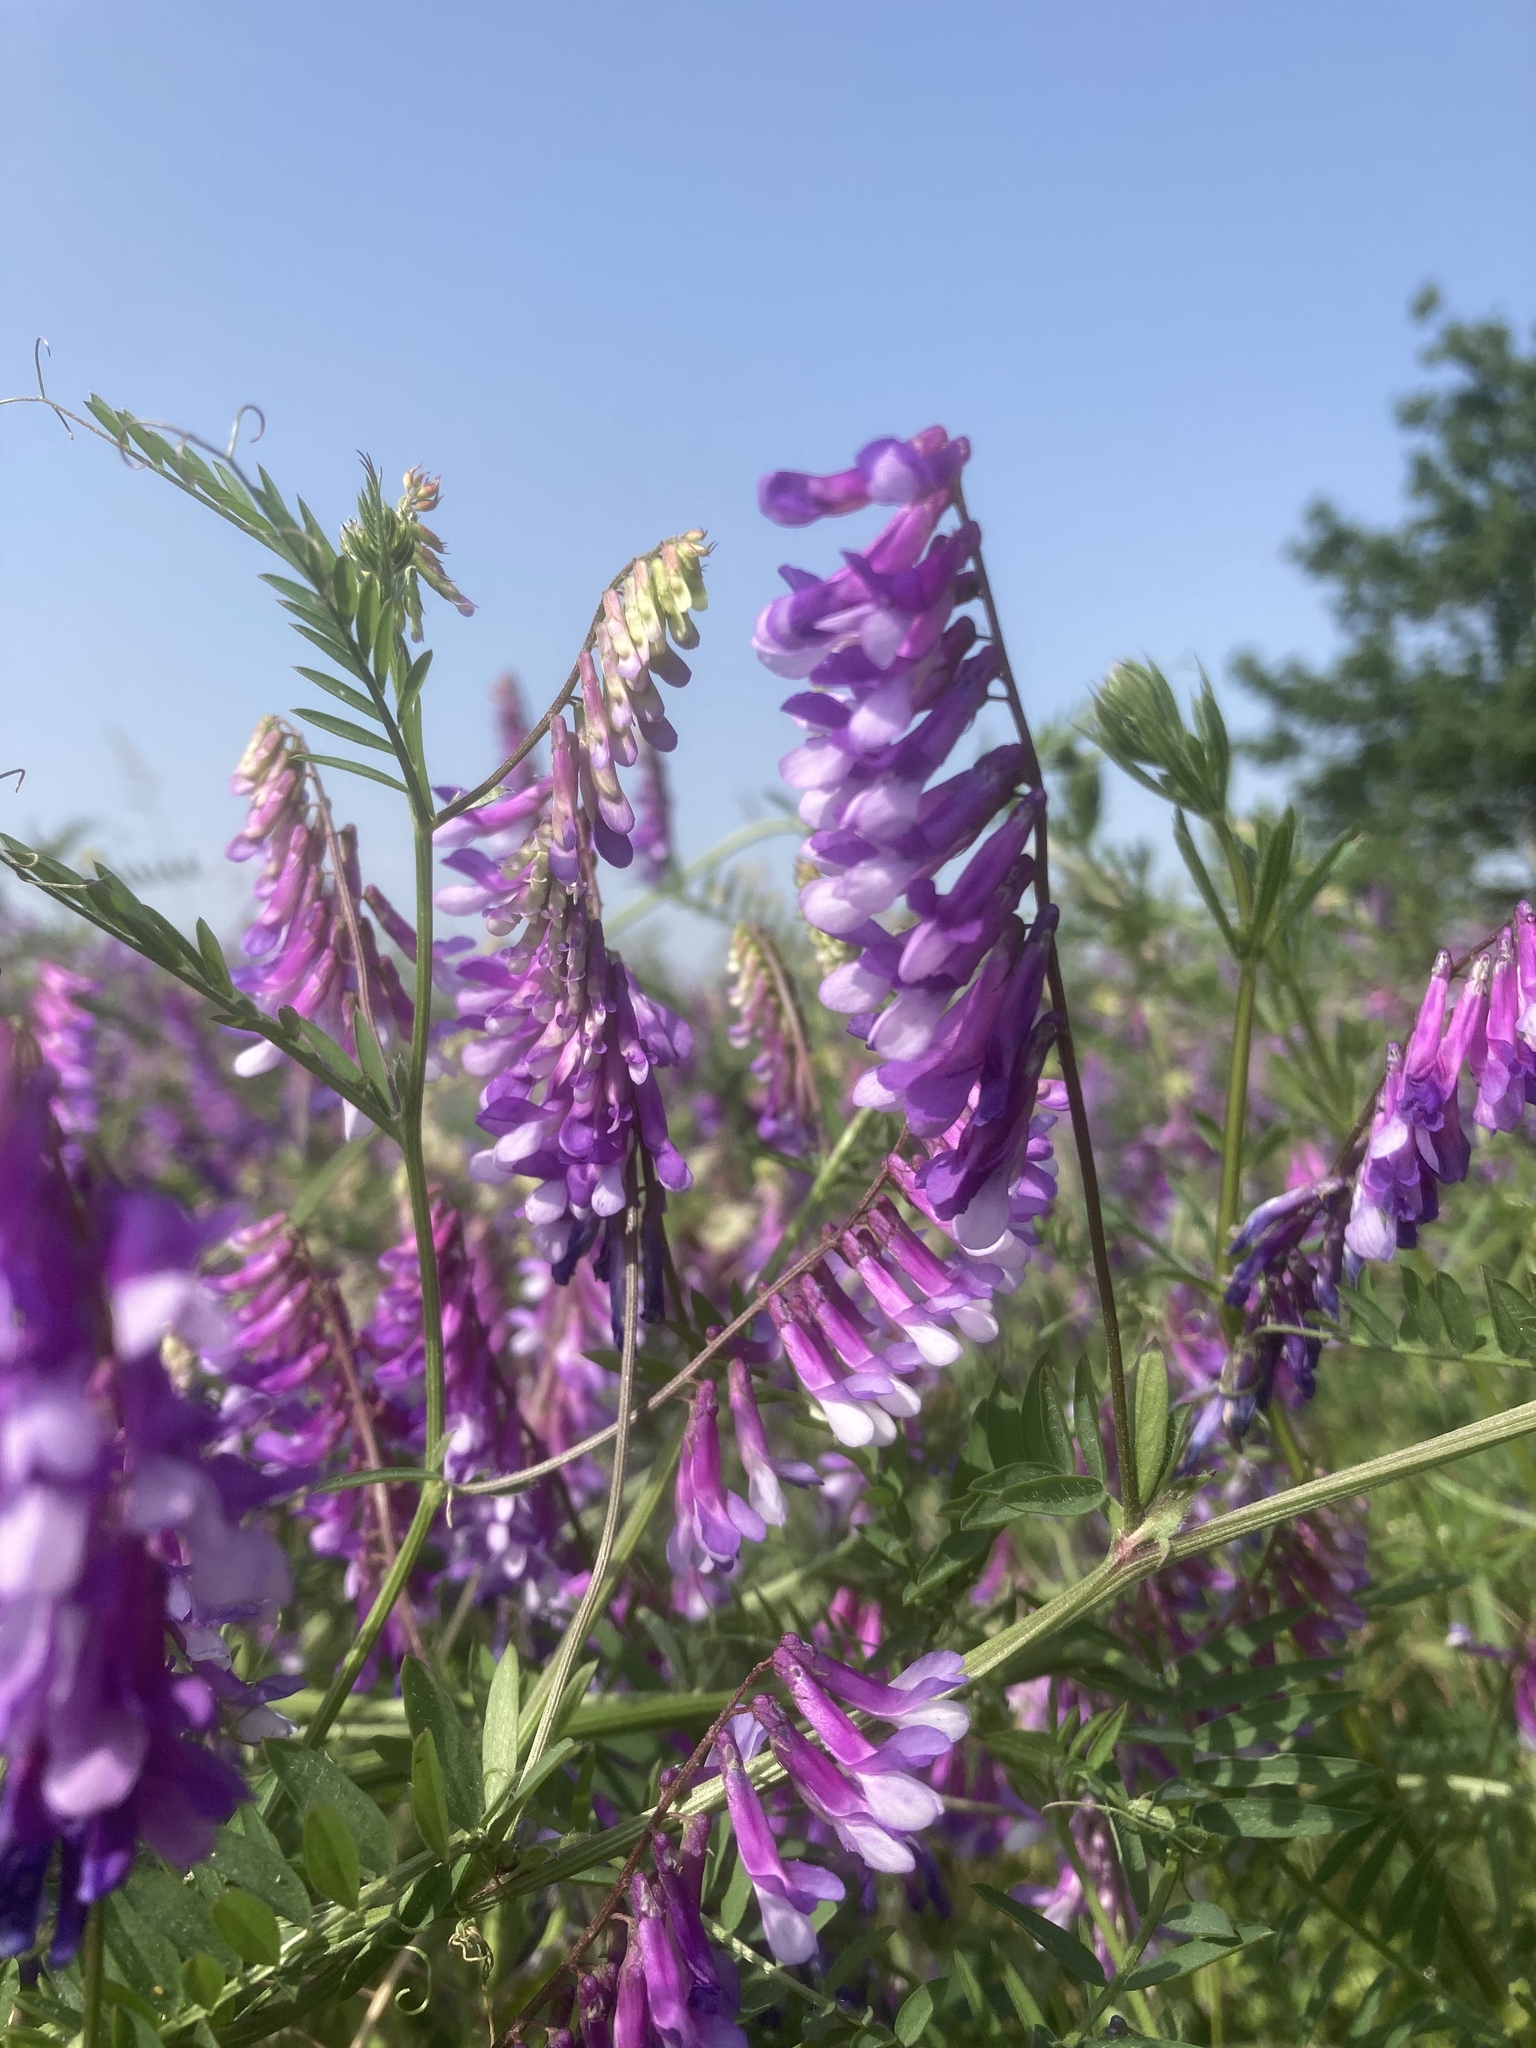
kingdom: Plantae
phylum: Tracheophyta
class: Magnoliopsida
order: Fabales
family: Fabaceae
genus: Vicia
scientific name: Vicia villosa
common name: Fodder vetch
